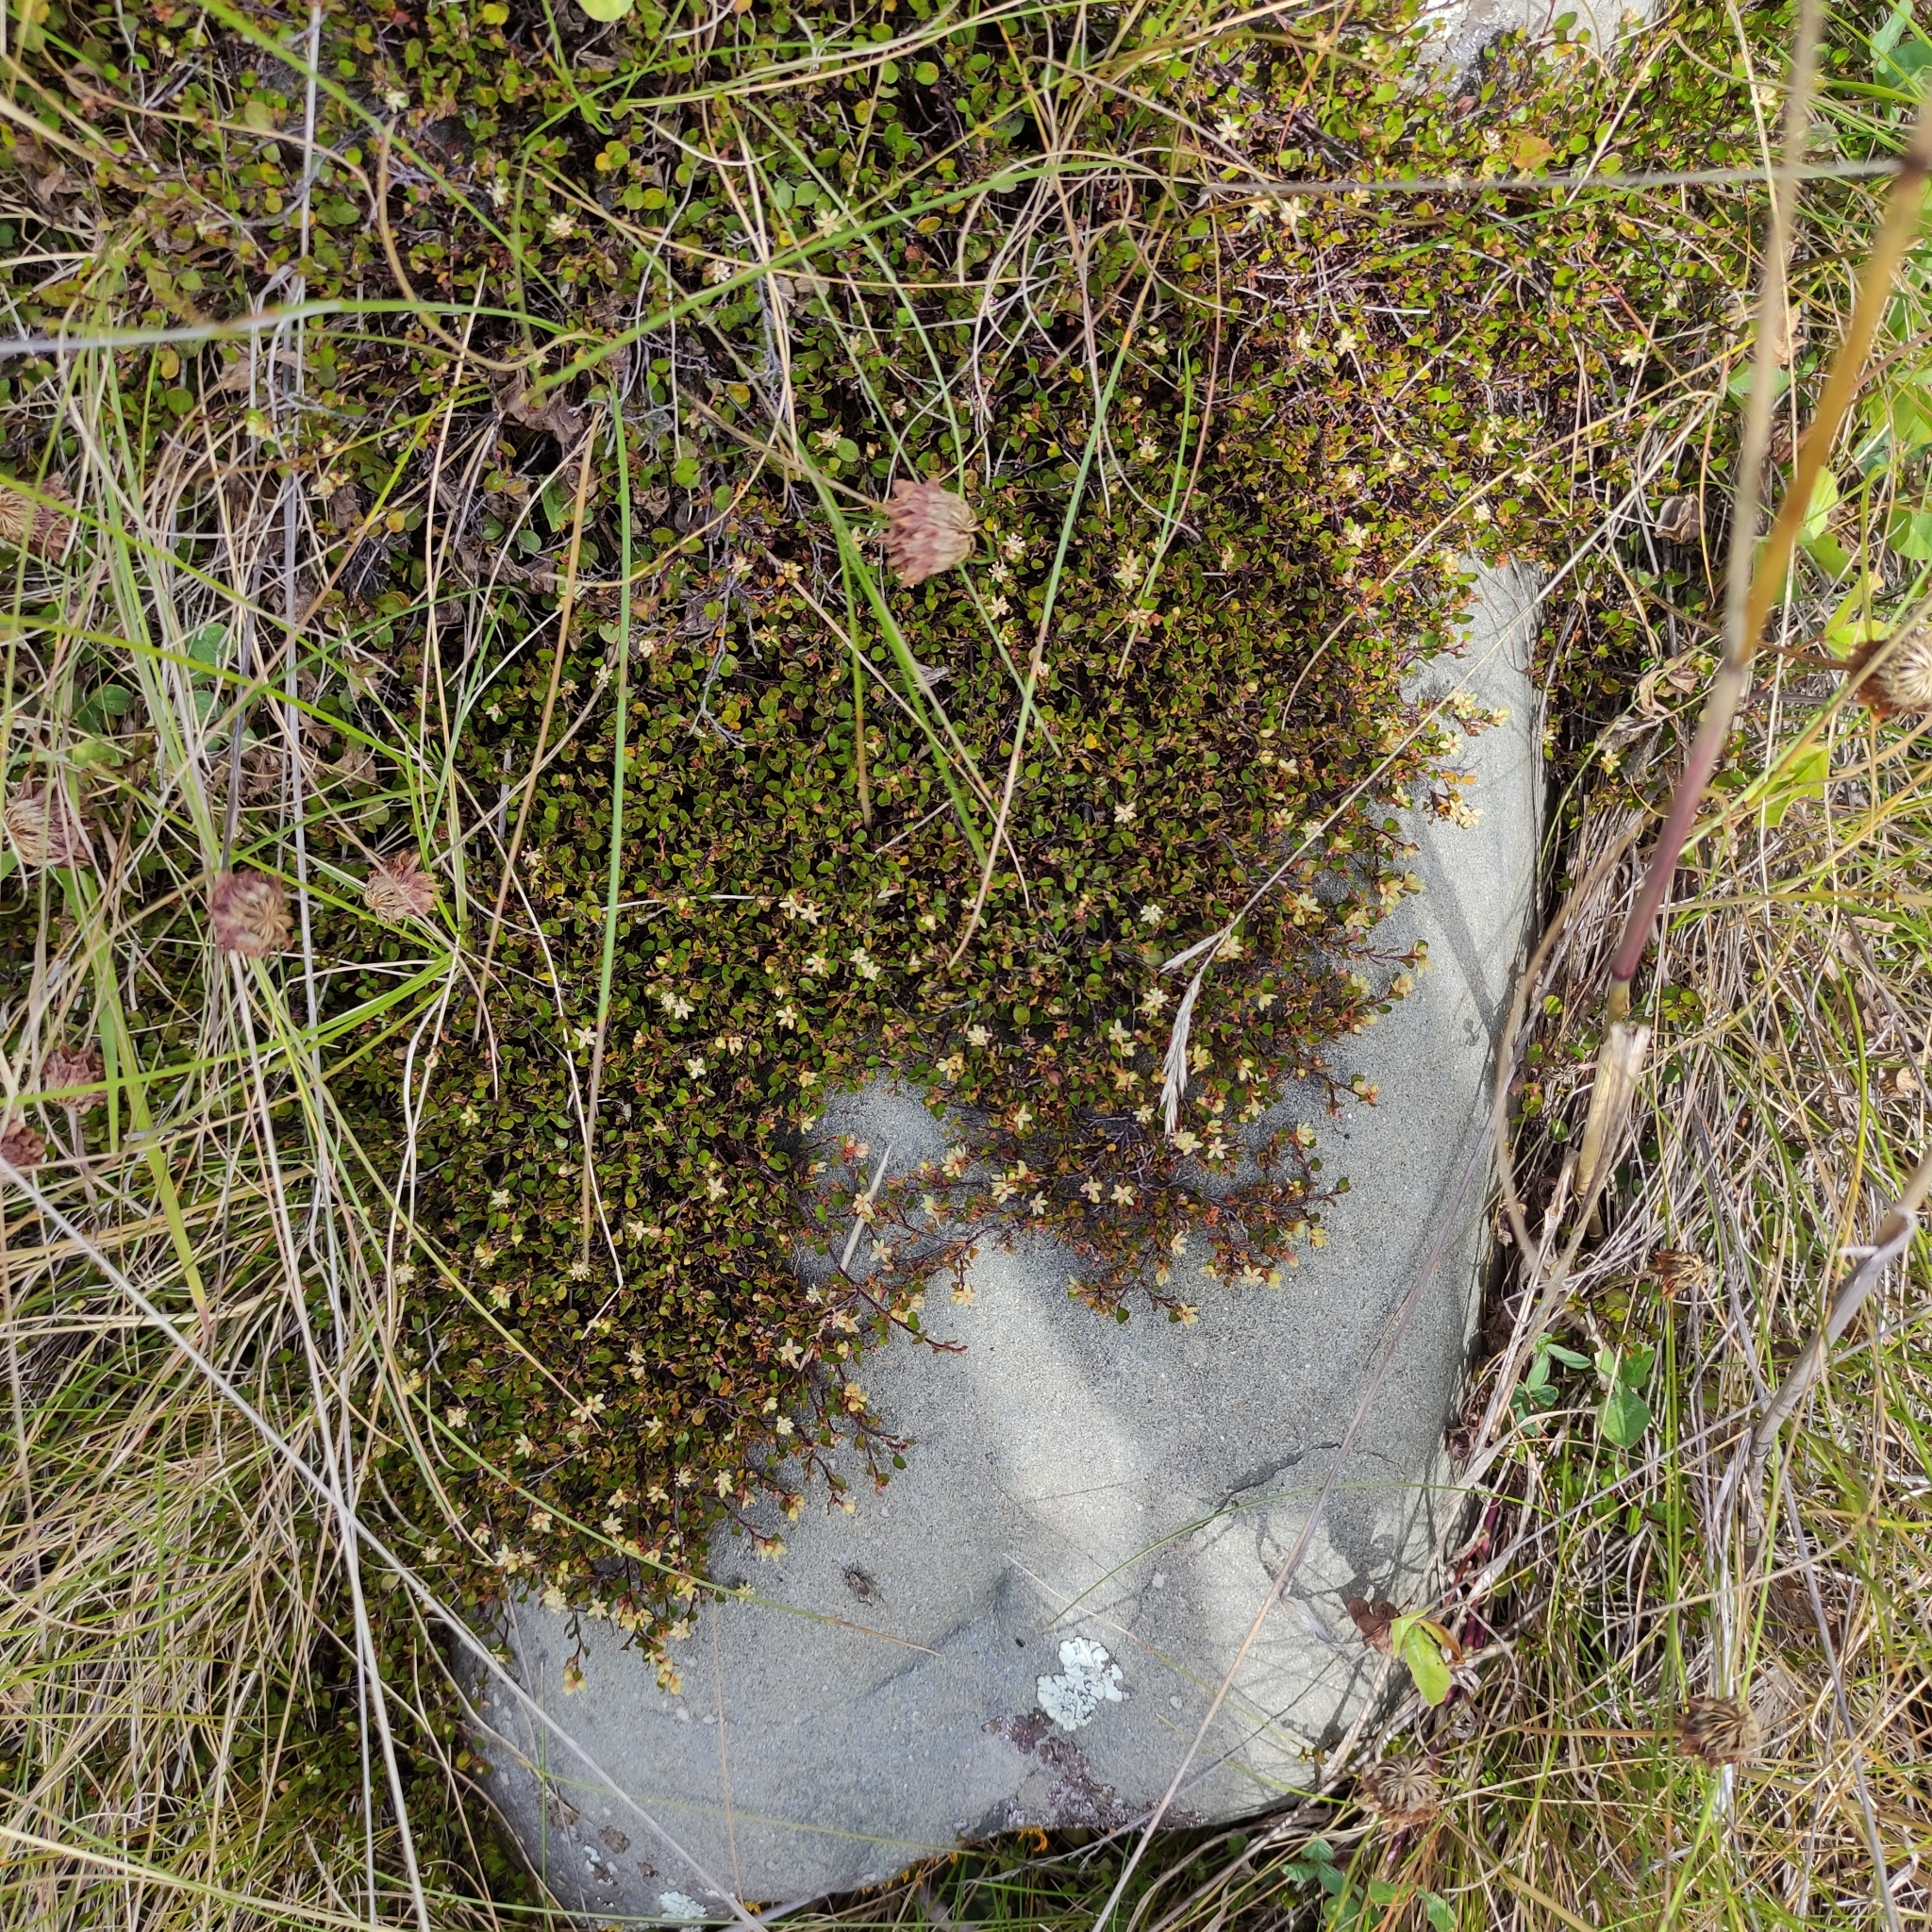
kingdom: Plantae
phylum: Tracheophyta
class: Magnoliopsida
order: Caryophyllales
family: Polygonaceae
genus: Muehlenbeckia
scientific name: Muehlenbeckia axillaris
